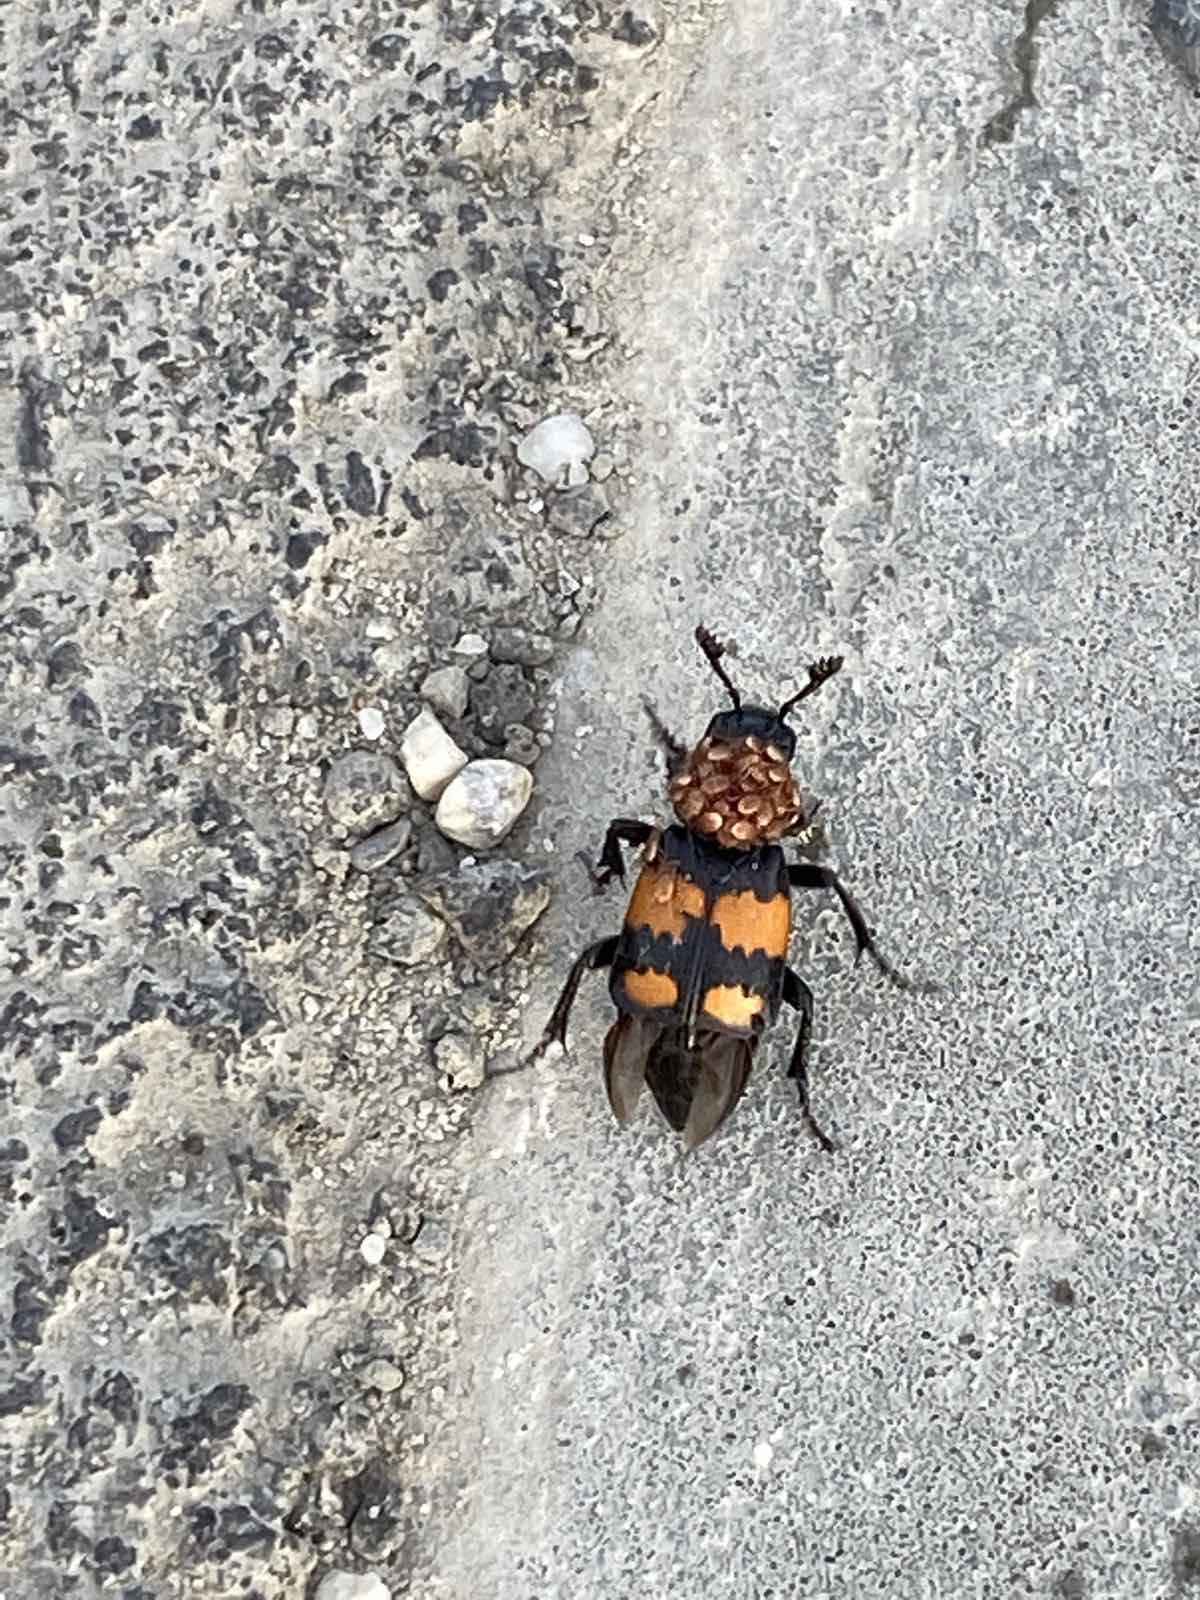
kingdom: Animalia
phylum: Arthropoda
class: Insecta
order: Coleoptera
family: Staphylinidae
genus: Nicrophorus
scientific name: Nicrophorus vespilloides
